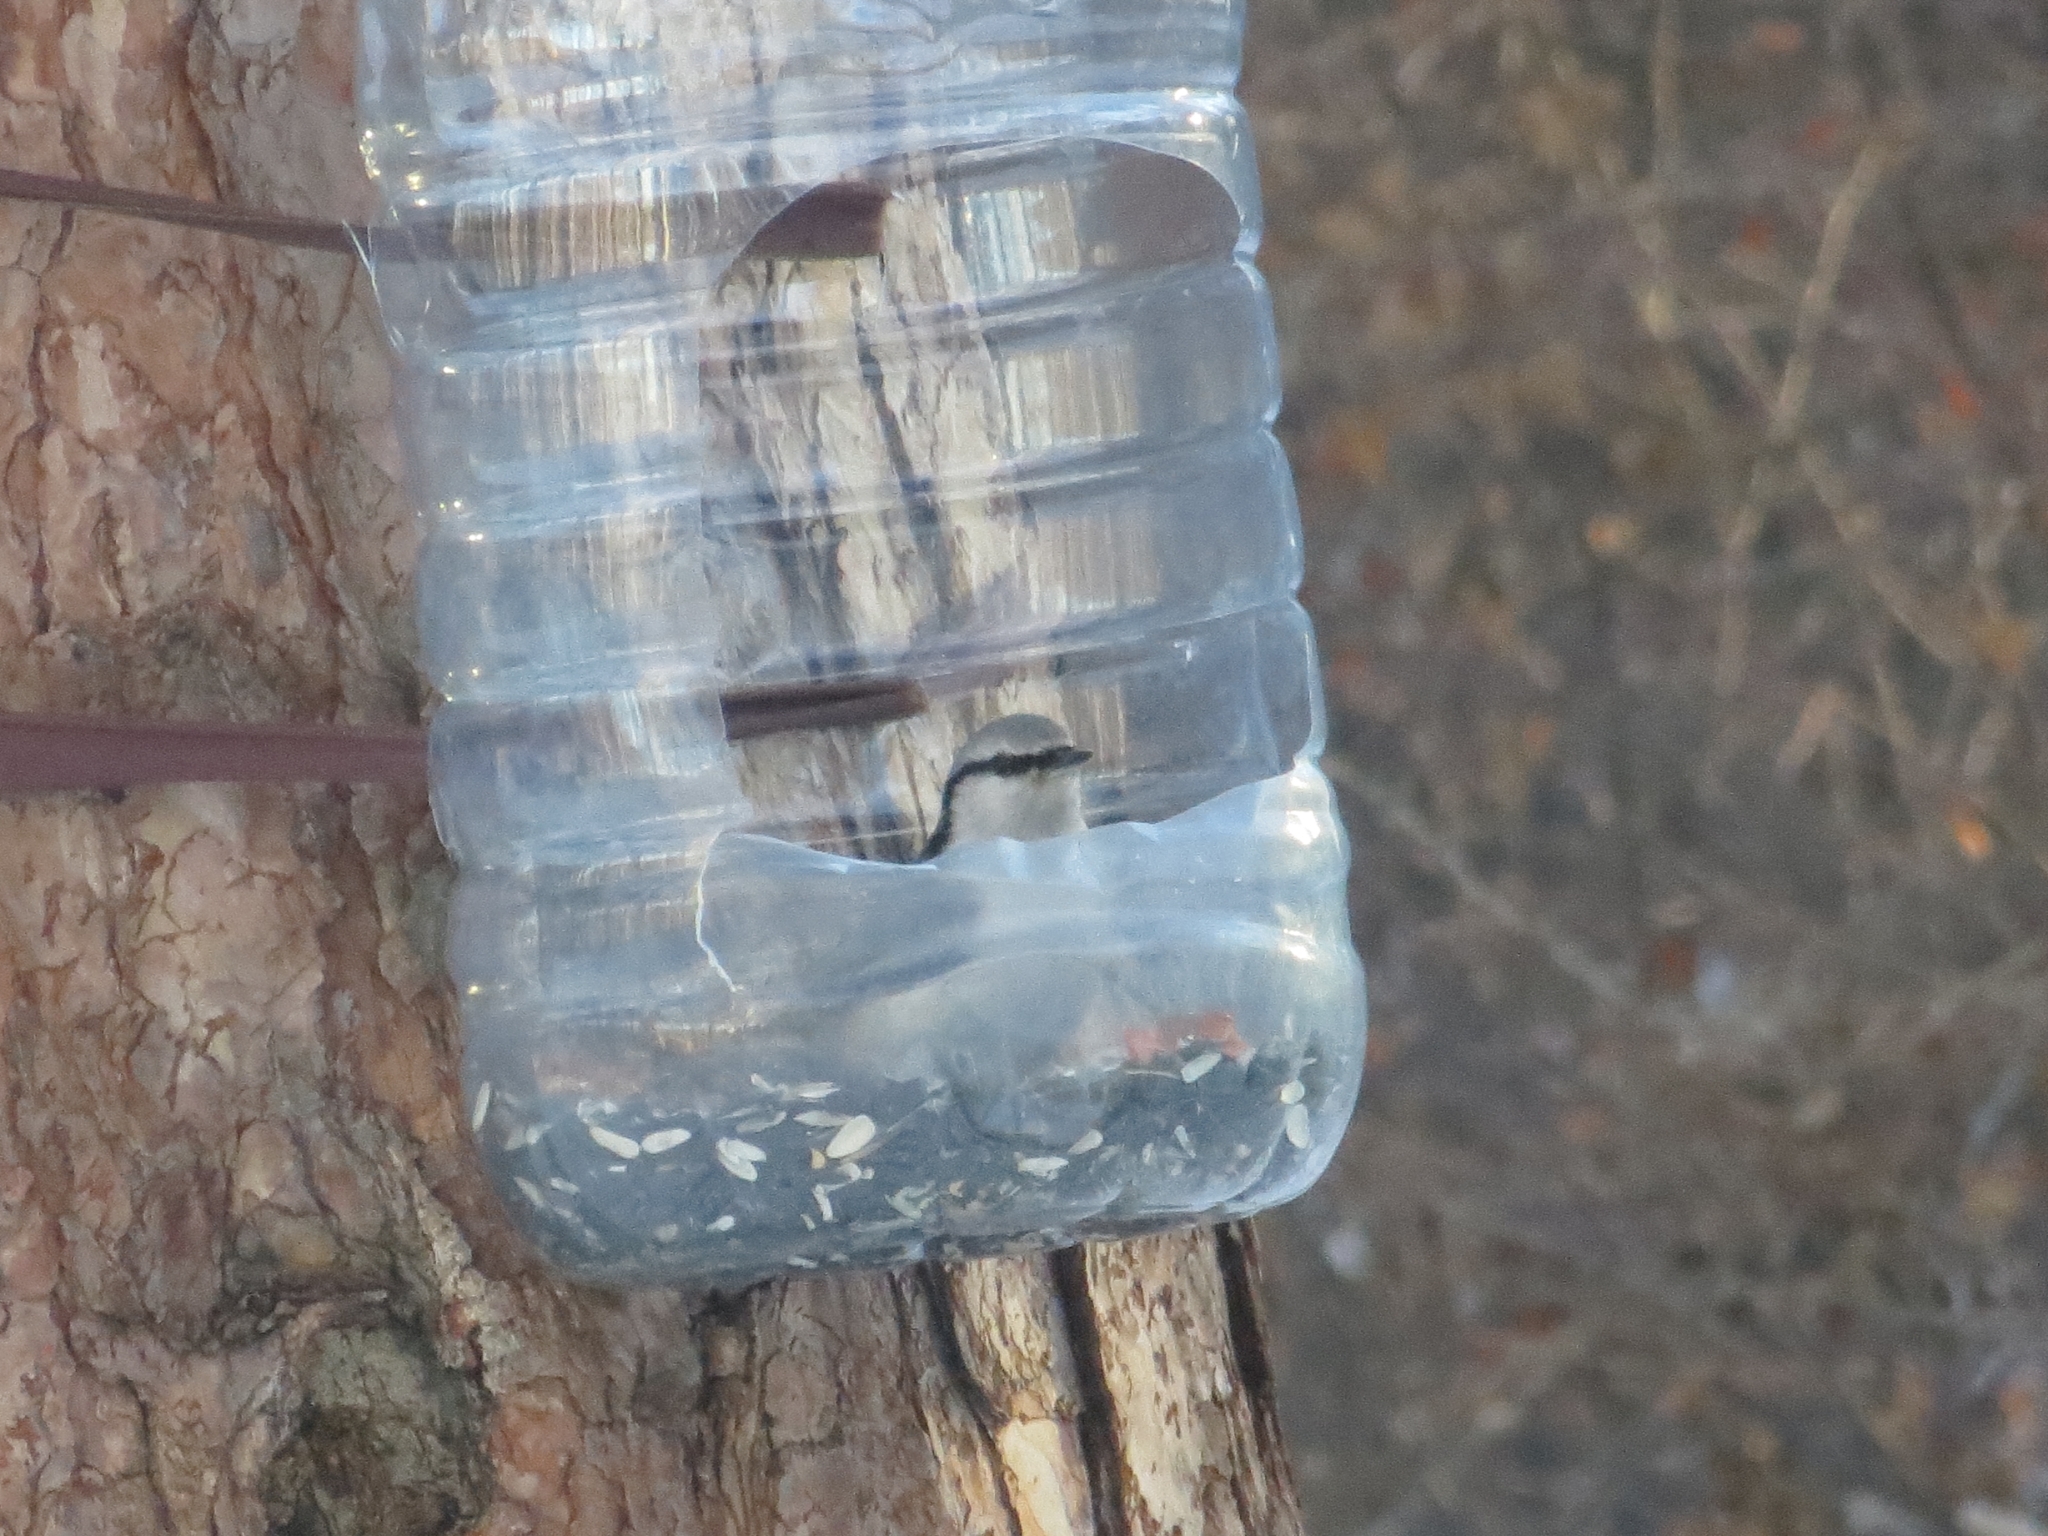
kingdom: Animalia
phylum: Chordata
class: Aves
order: Passeriformes
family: Sittidae
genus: Sitta
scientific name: Sitta europaea
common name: Eurasian nuthatch
